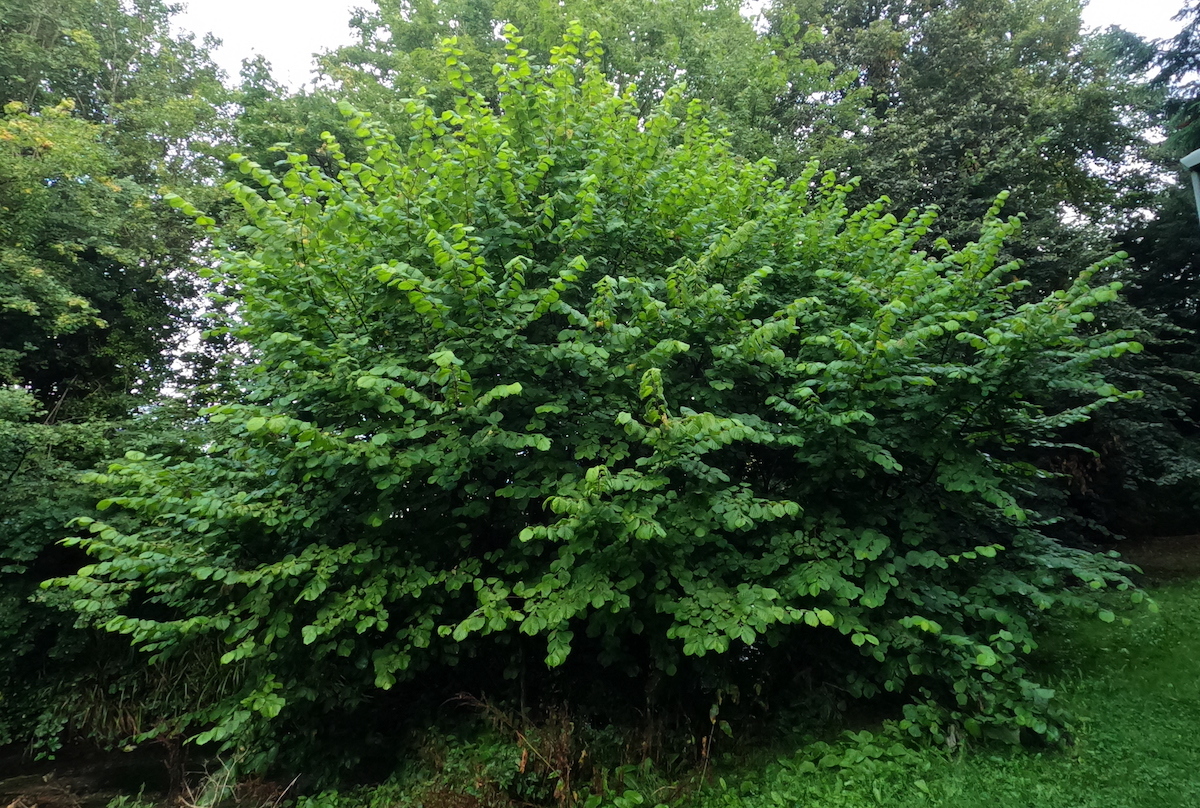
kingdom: Plantae
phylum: Tracheophyta
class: Magnoliopsida
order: Fagales
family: Betulaceae
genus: Corylus
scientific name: Corylus avellana
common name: European hazel
